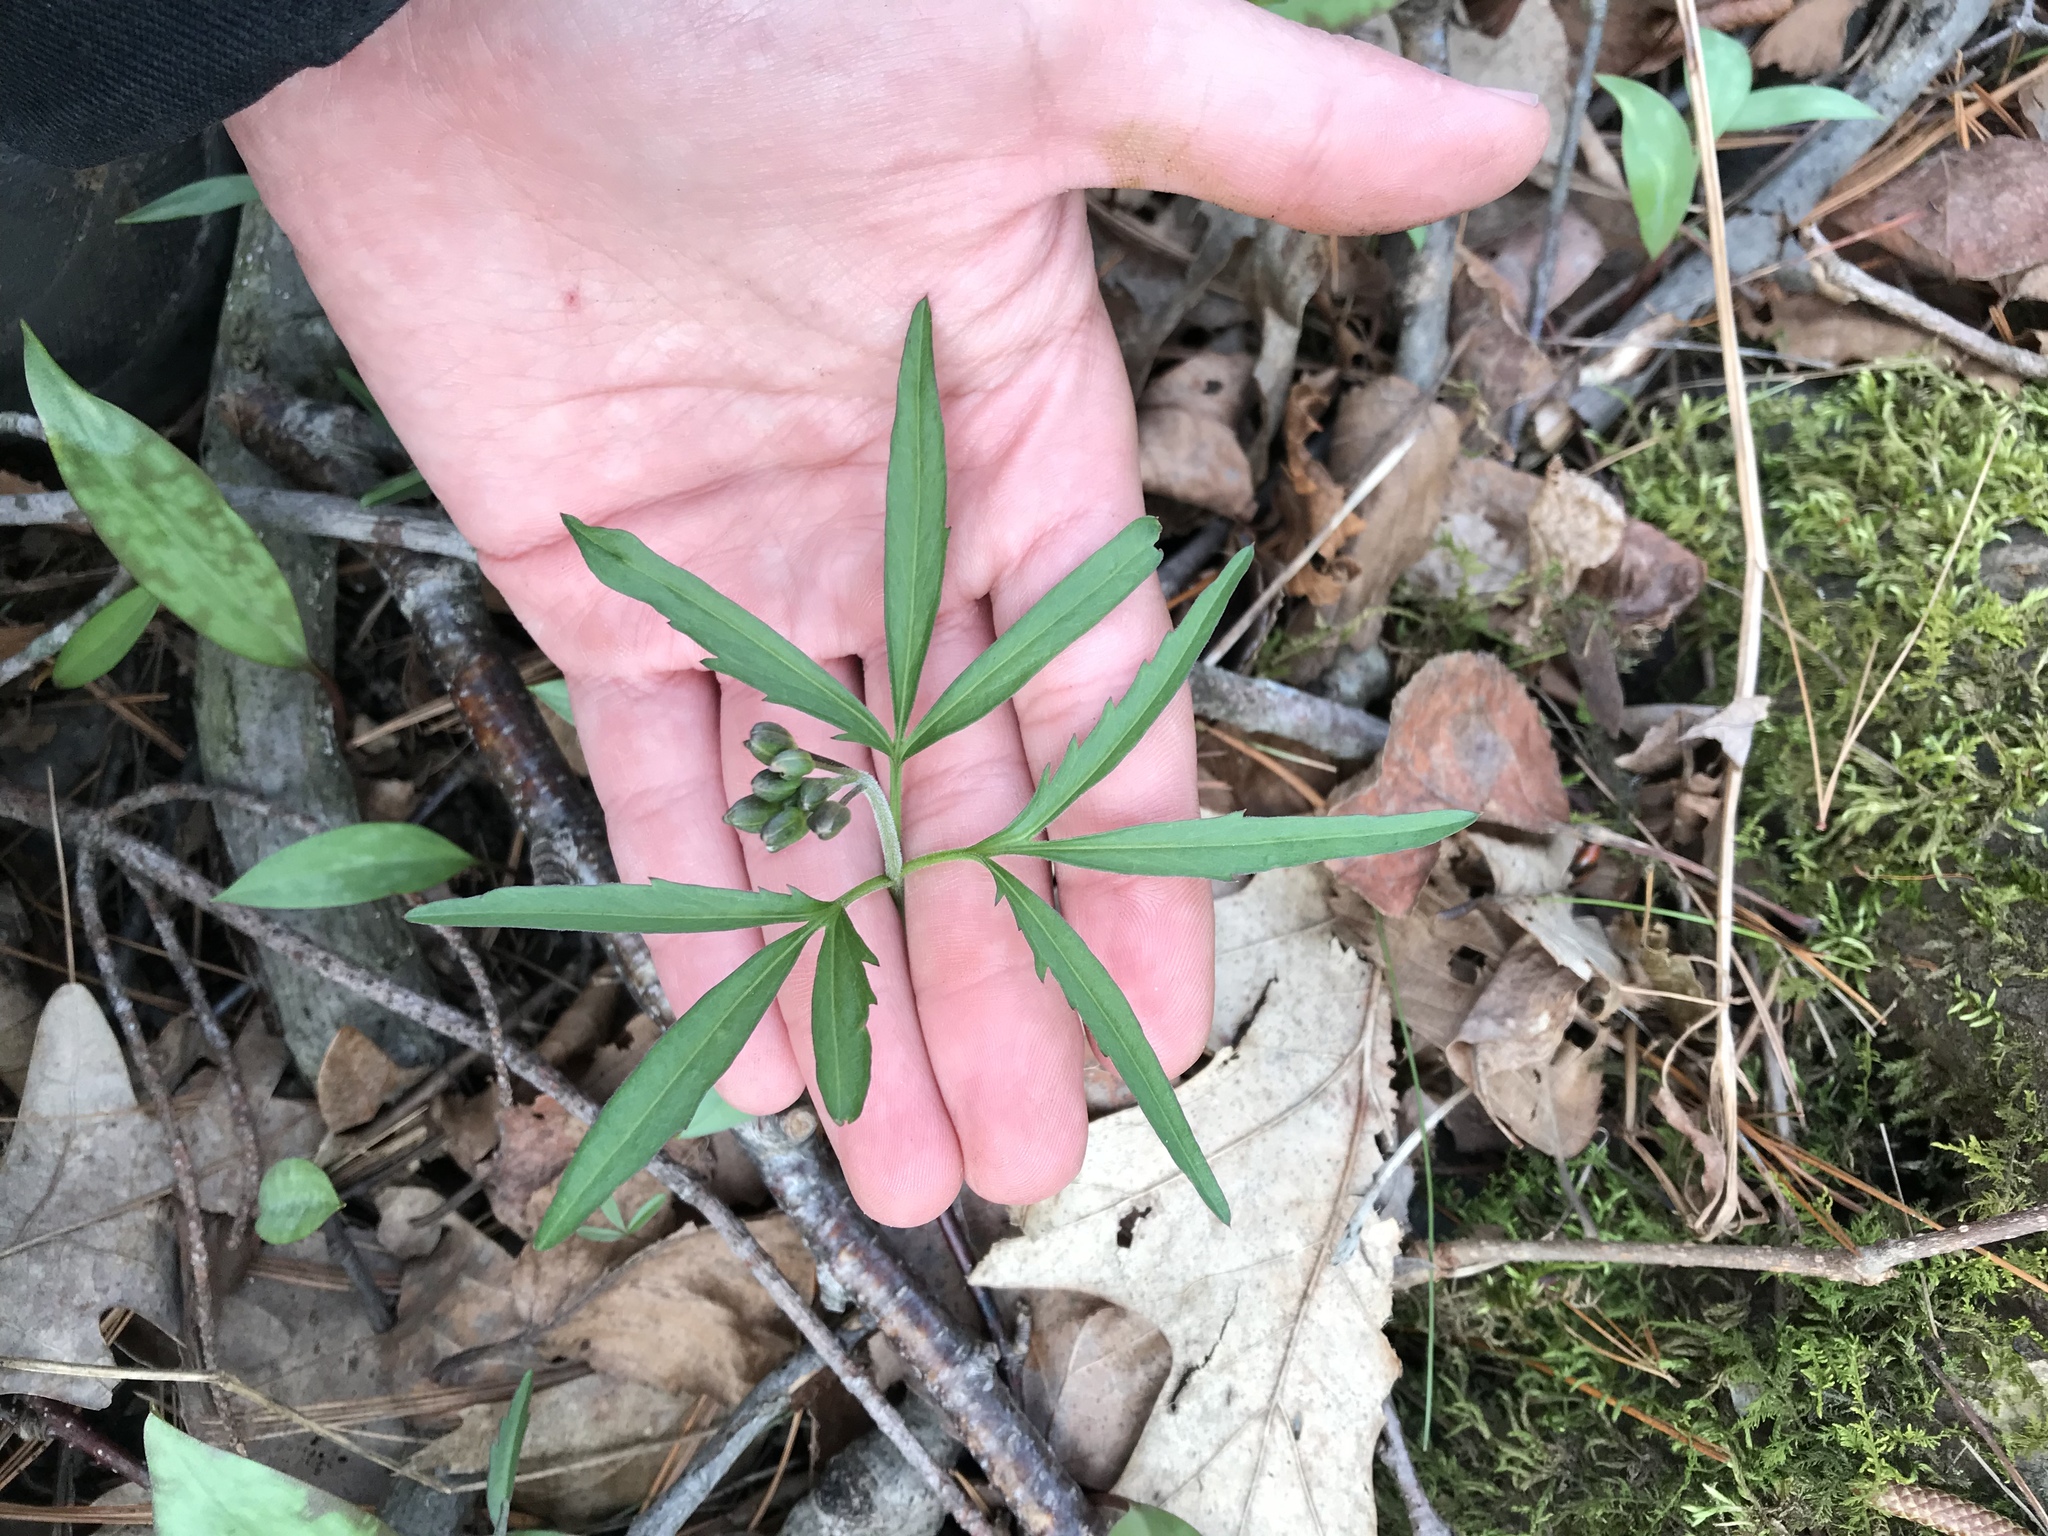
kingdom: Plantae
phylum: Tracheophyta
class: Magnoliopsida
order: Brassicales
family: Brassicaceae
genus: Cardamine
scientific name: Cardamine concatenata
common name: Cut-leaf toothcup
